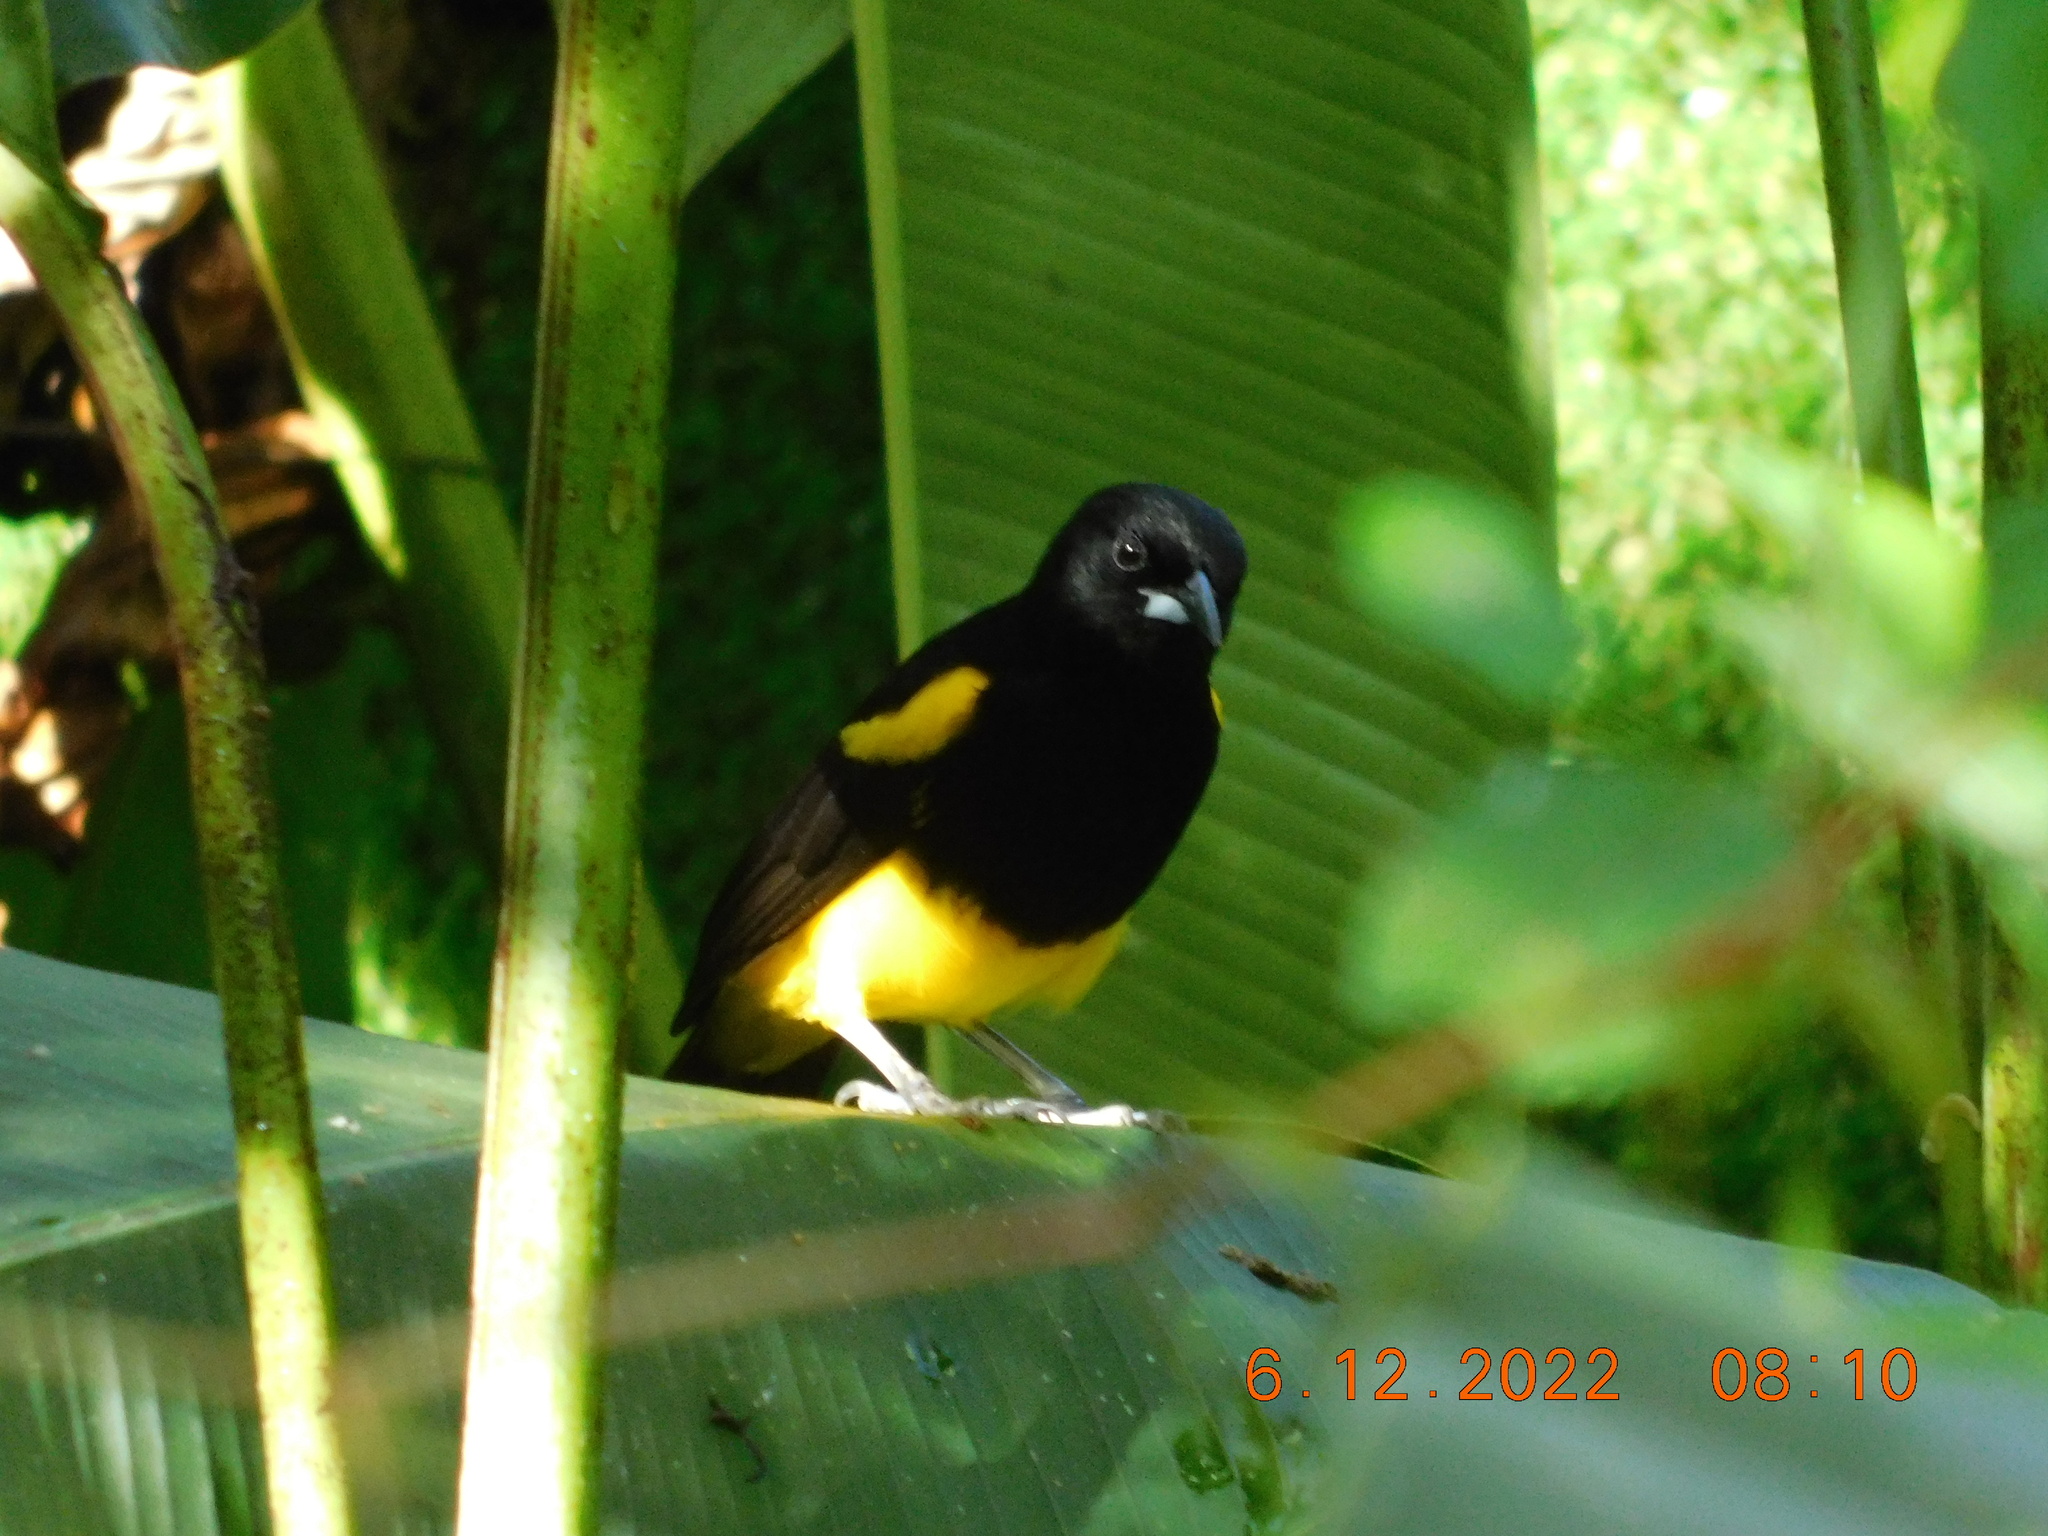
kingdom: Animalia
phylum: Chordata
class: Aves
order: Passeriformes
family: Icteridae
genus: Icterus
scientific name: Icterus prosthemelas
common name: Black-cowled oriole
